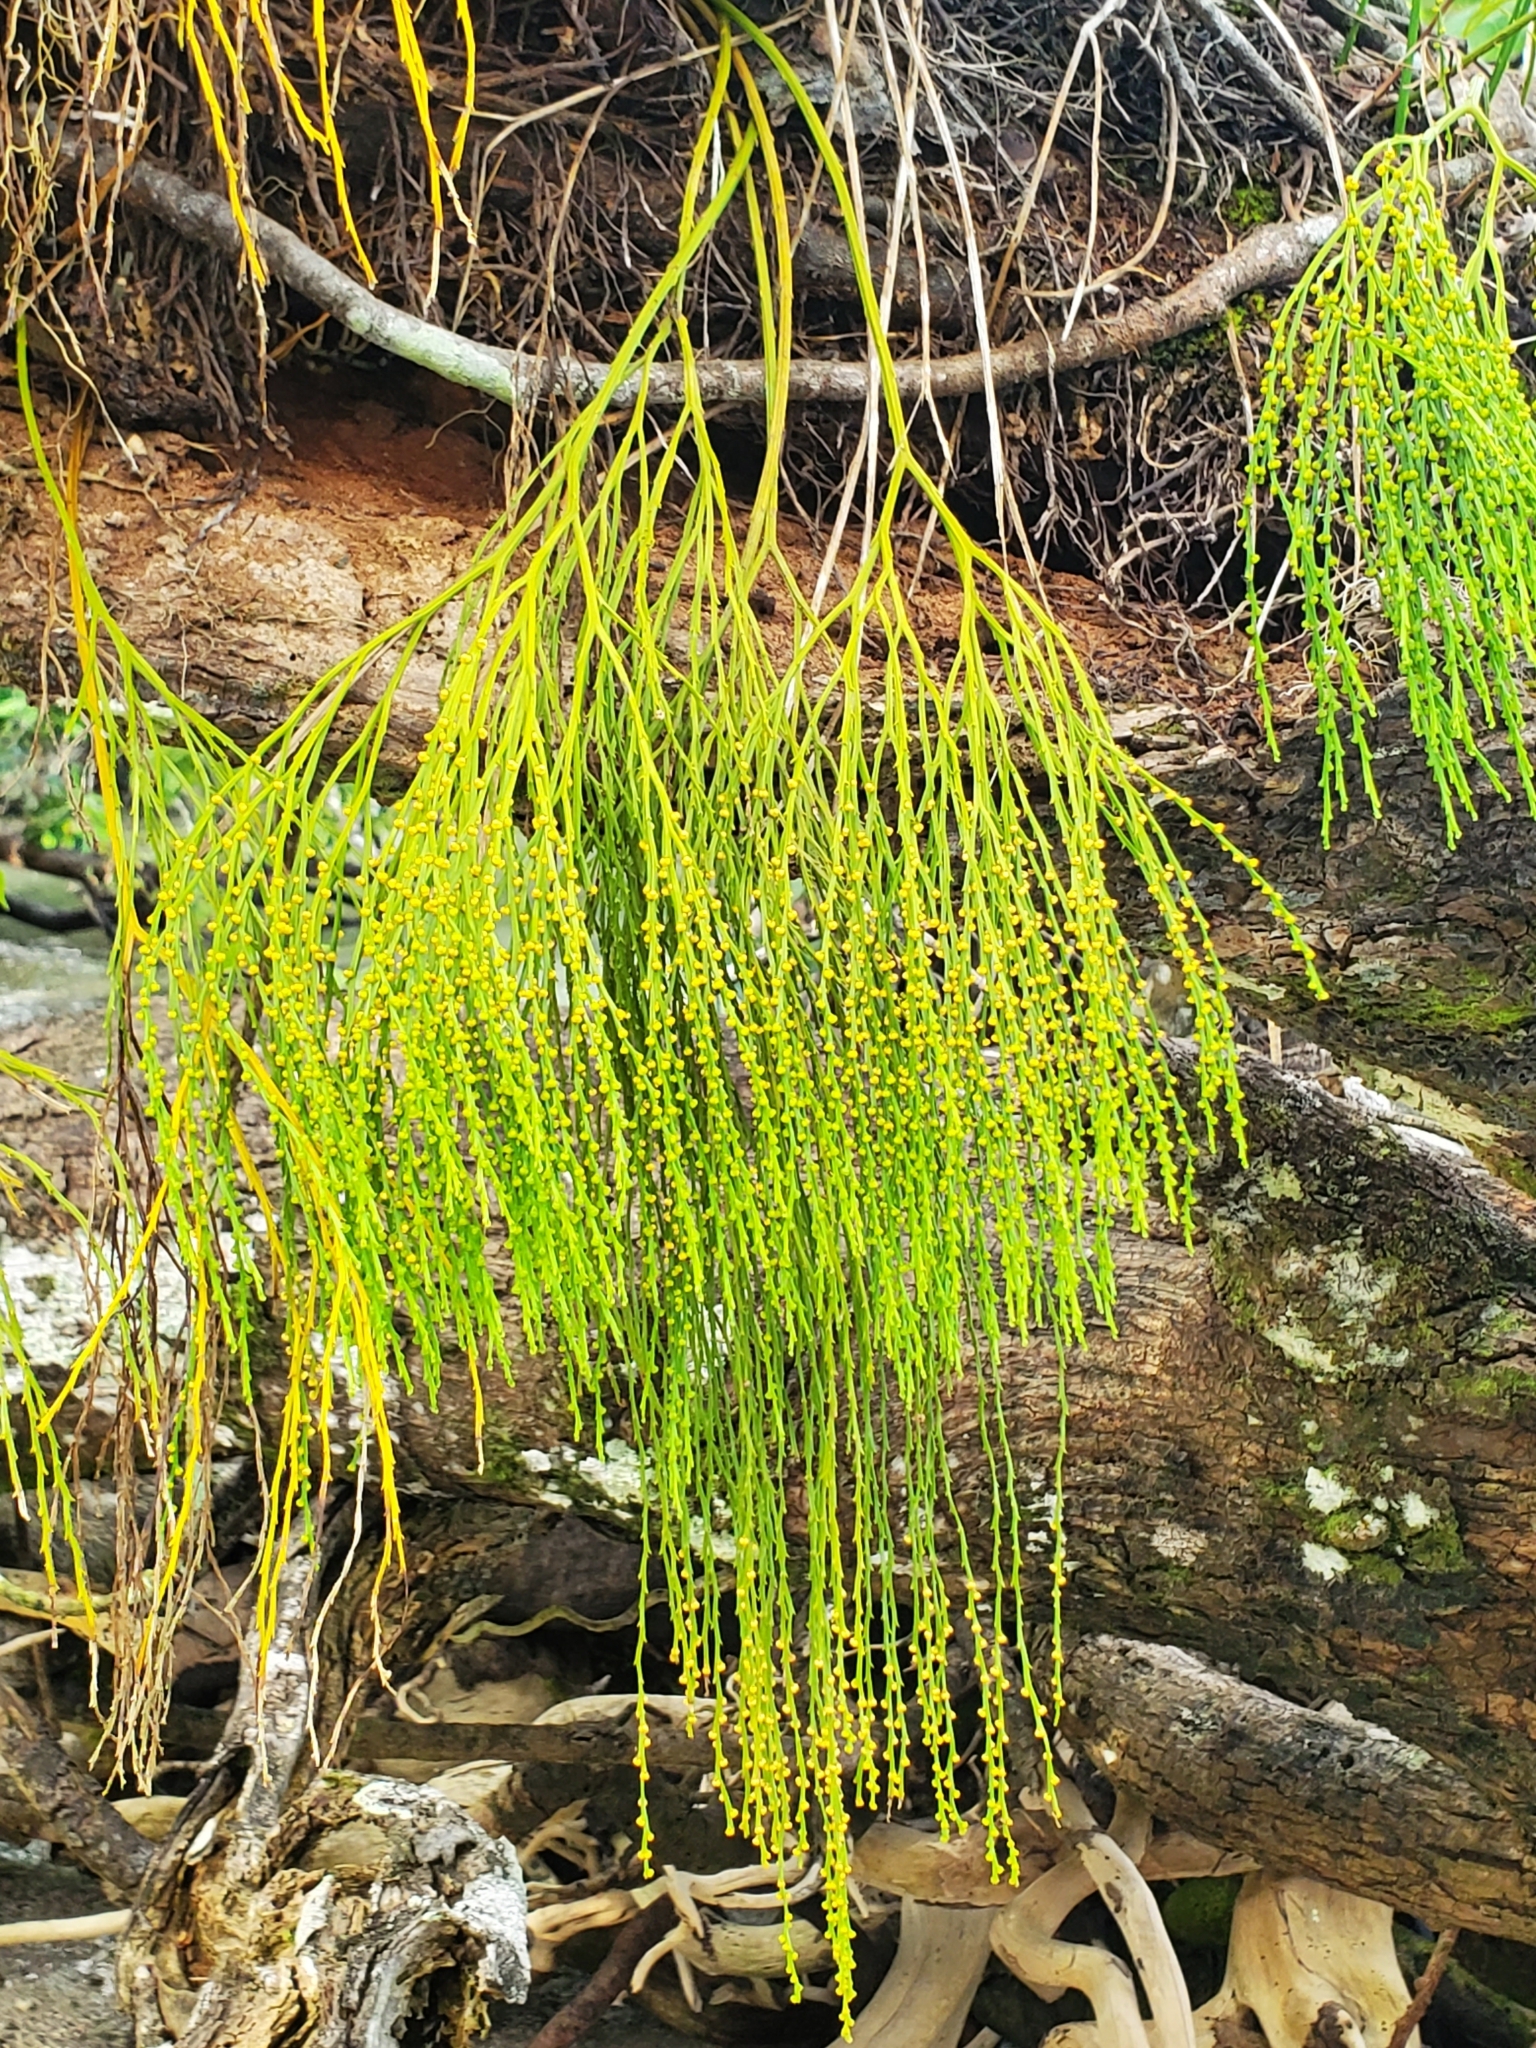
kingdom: Plantae
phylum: Tracheophyta
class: Polypodiopsida
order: Psilotales
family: Psilotaceae
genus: Psilotum
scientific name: Psilotum nudum
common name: Skeleton fork fern
